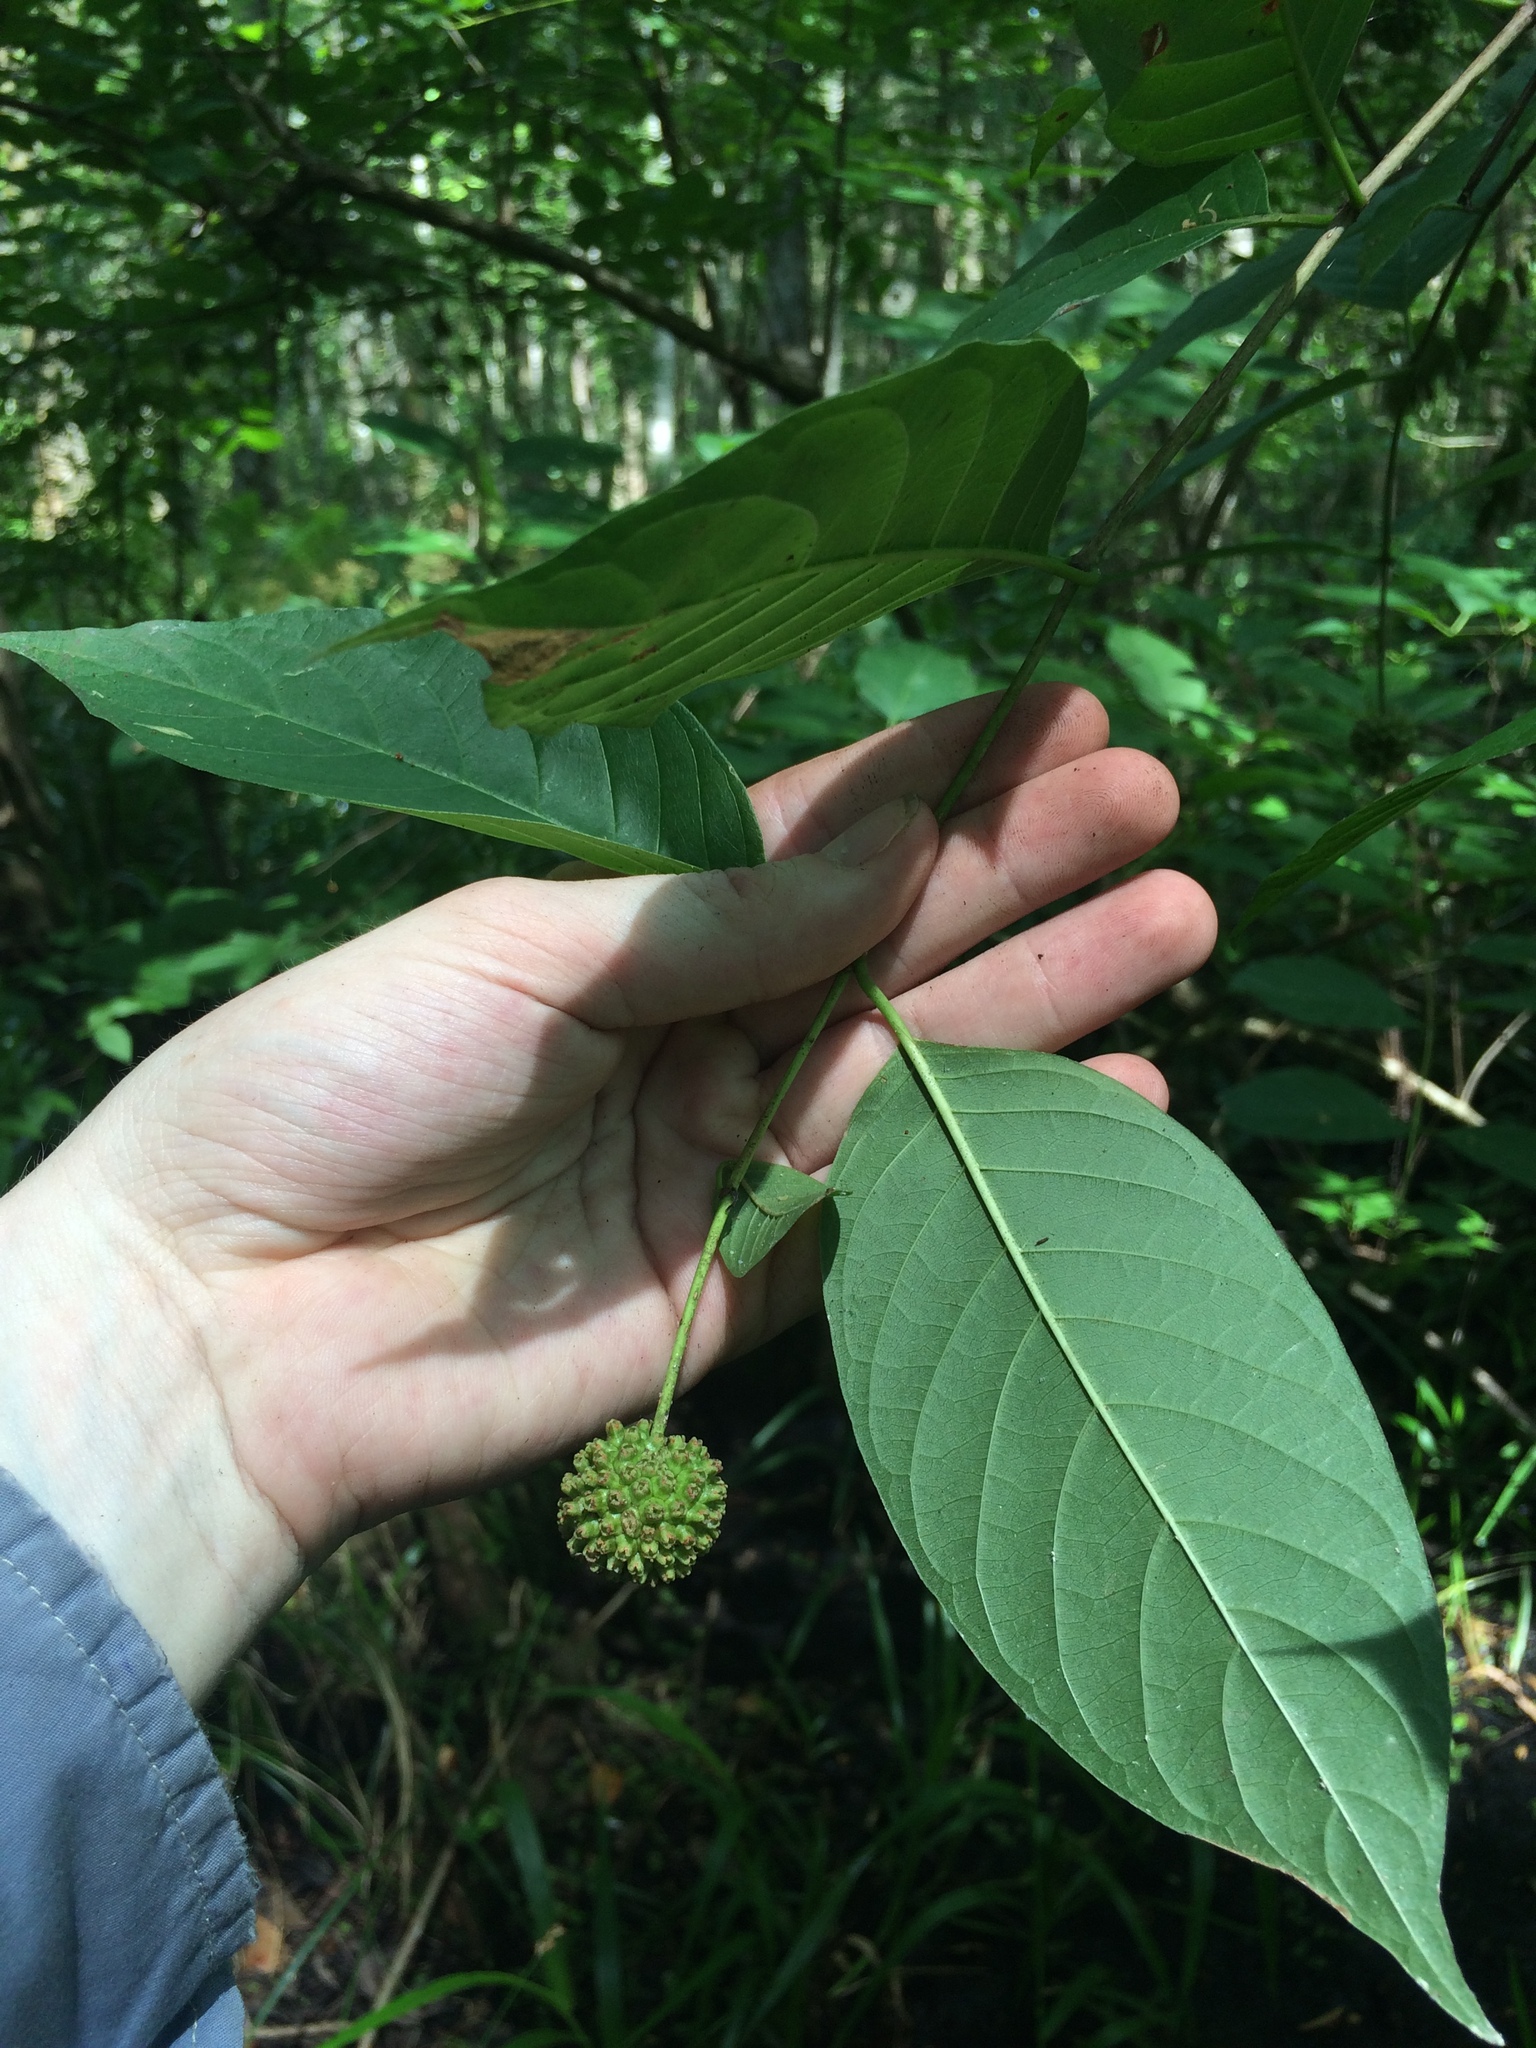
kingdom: Plantae
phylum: Tracheophyta
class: Magnoliopsida
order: Gentianales
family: Rubiaceae
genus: Cephalanthus
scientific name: Cephalanthus occidentalis
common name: Button-willow
